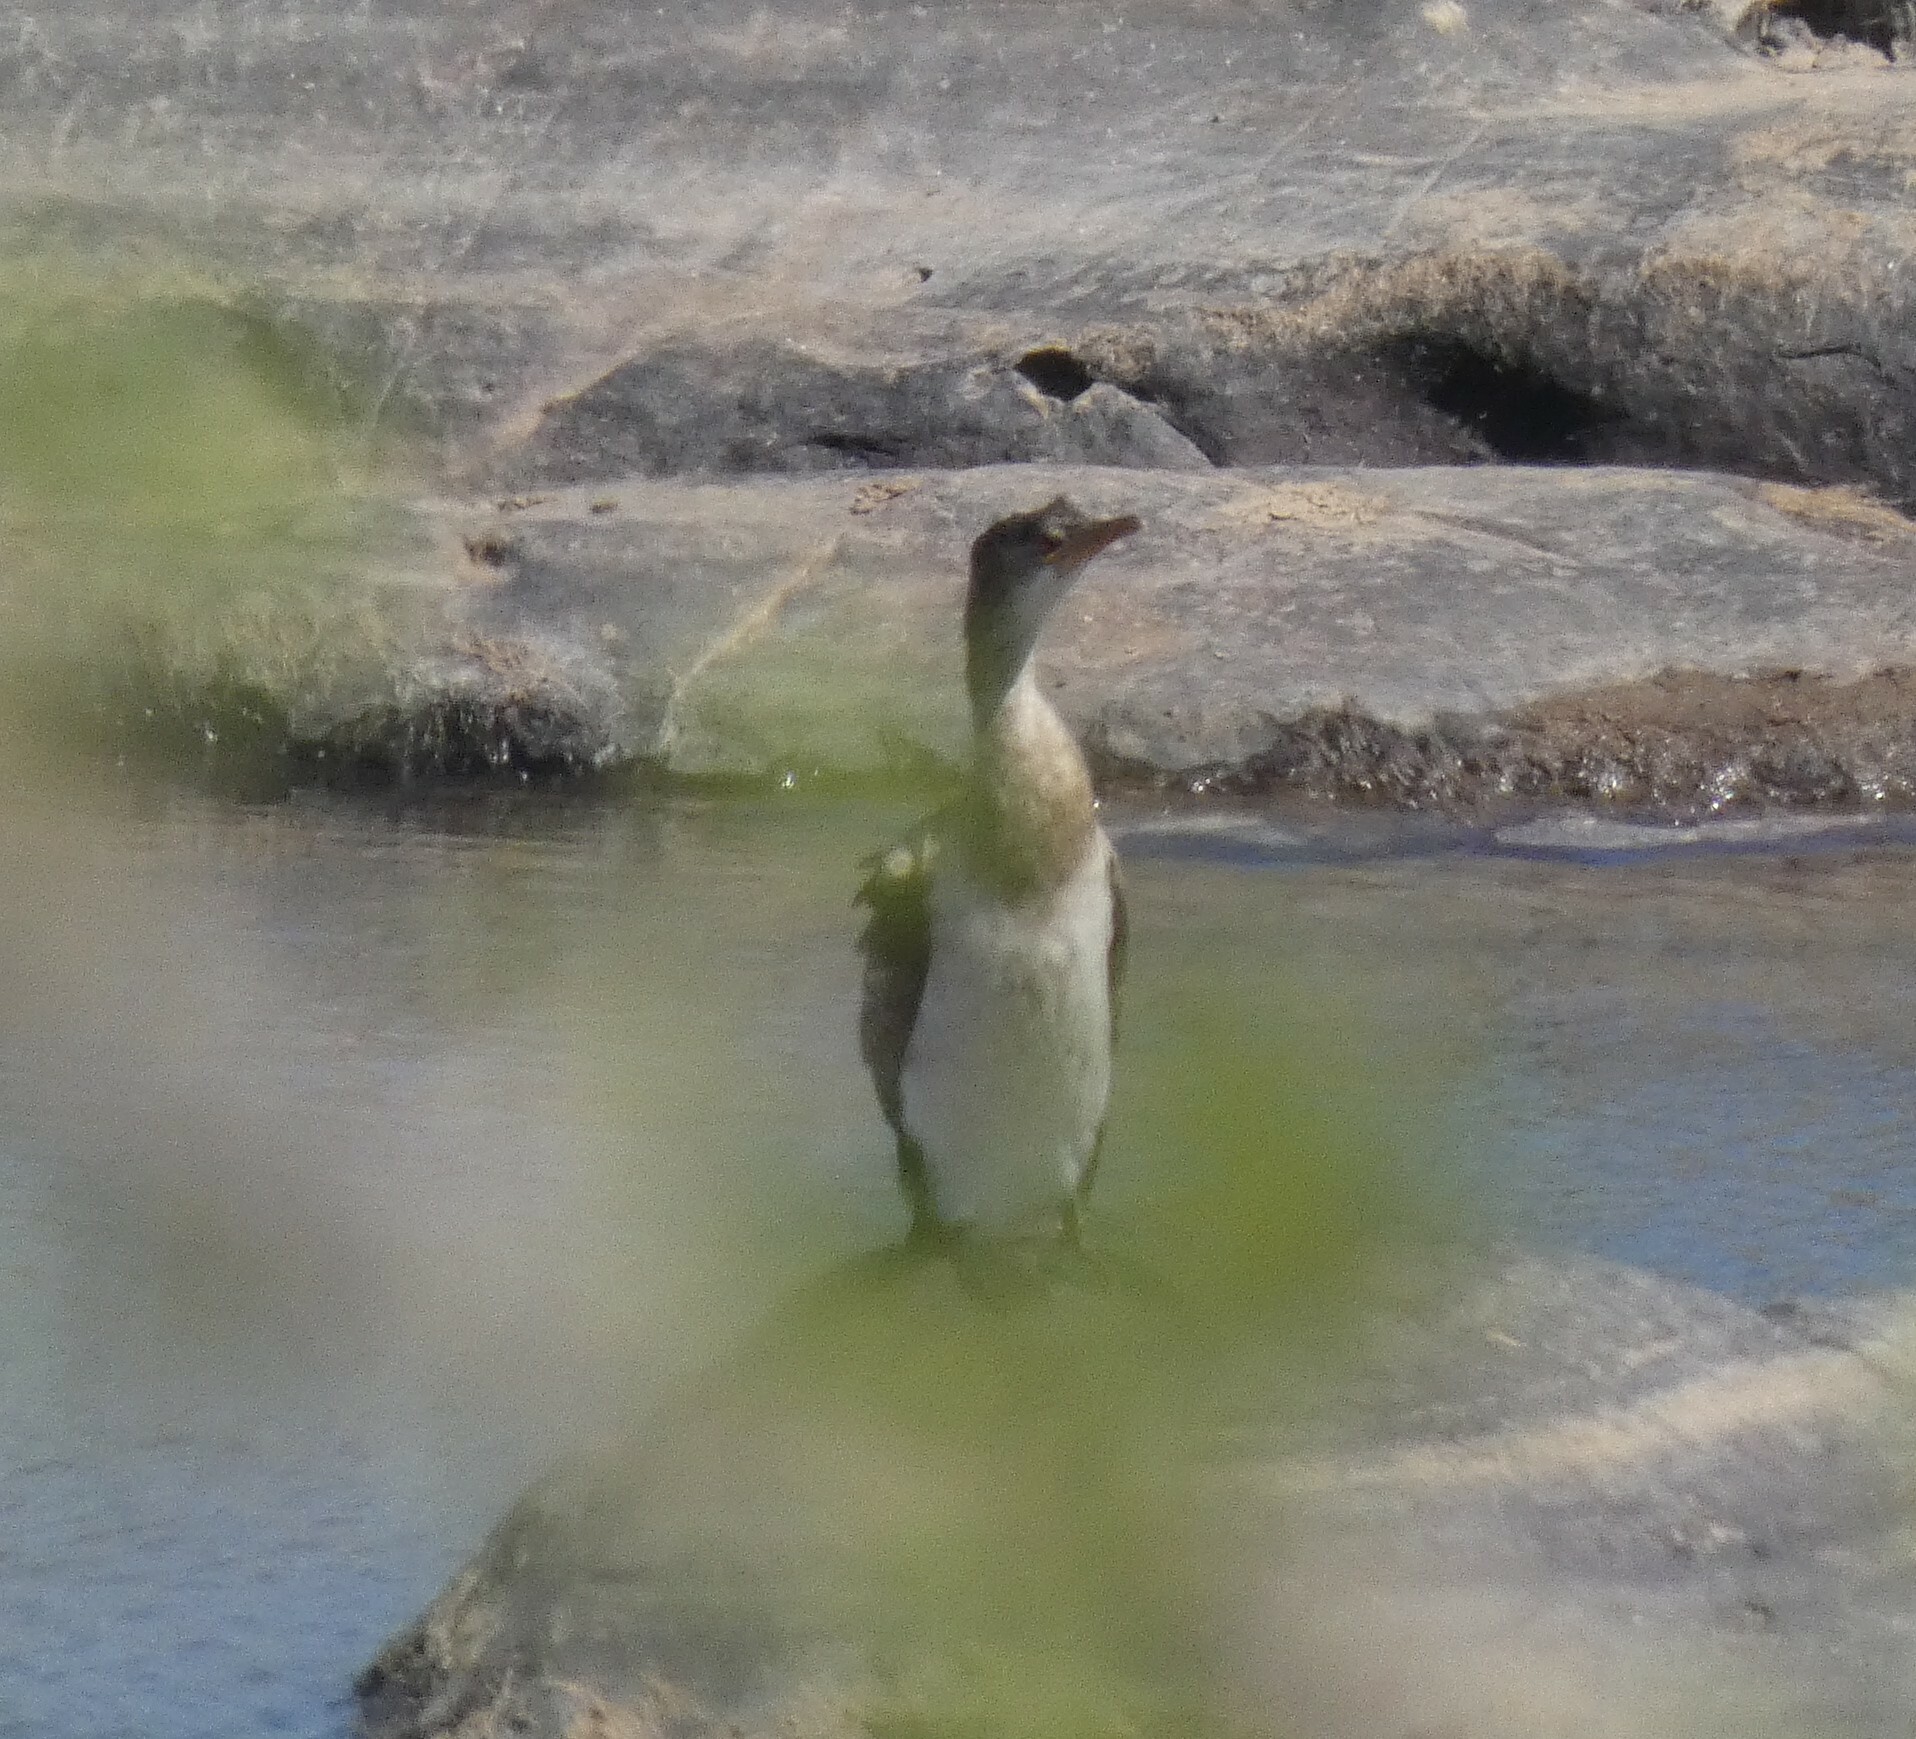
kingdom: Animalia
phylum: Chordata
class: Aves
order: Suliformes
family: Phalacrocoracidae
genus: Microcarbo
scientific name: Microcarbo africanus
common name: Long-tailed cormorant
